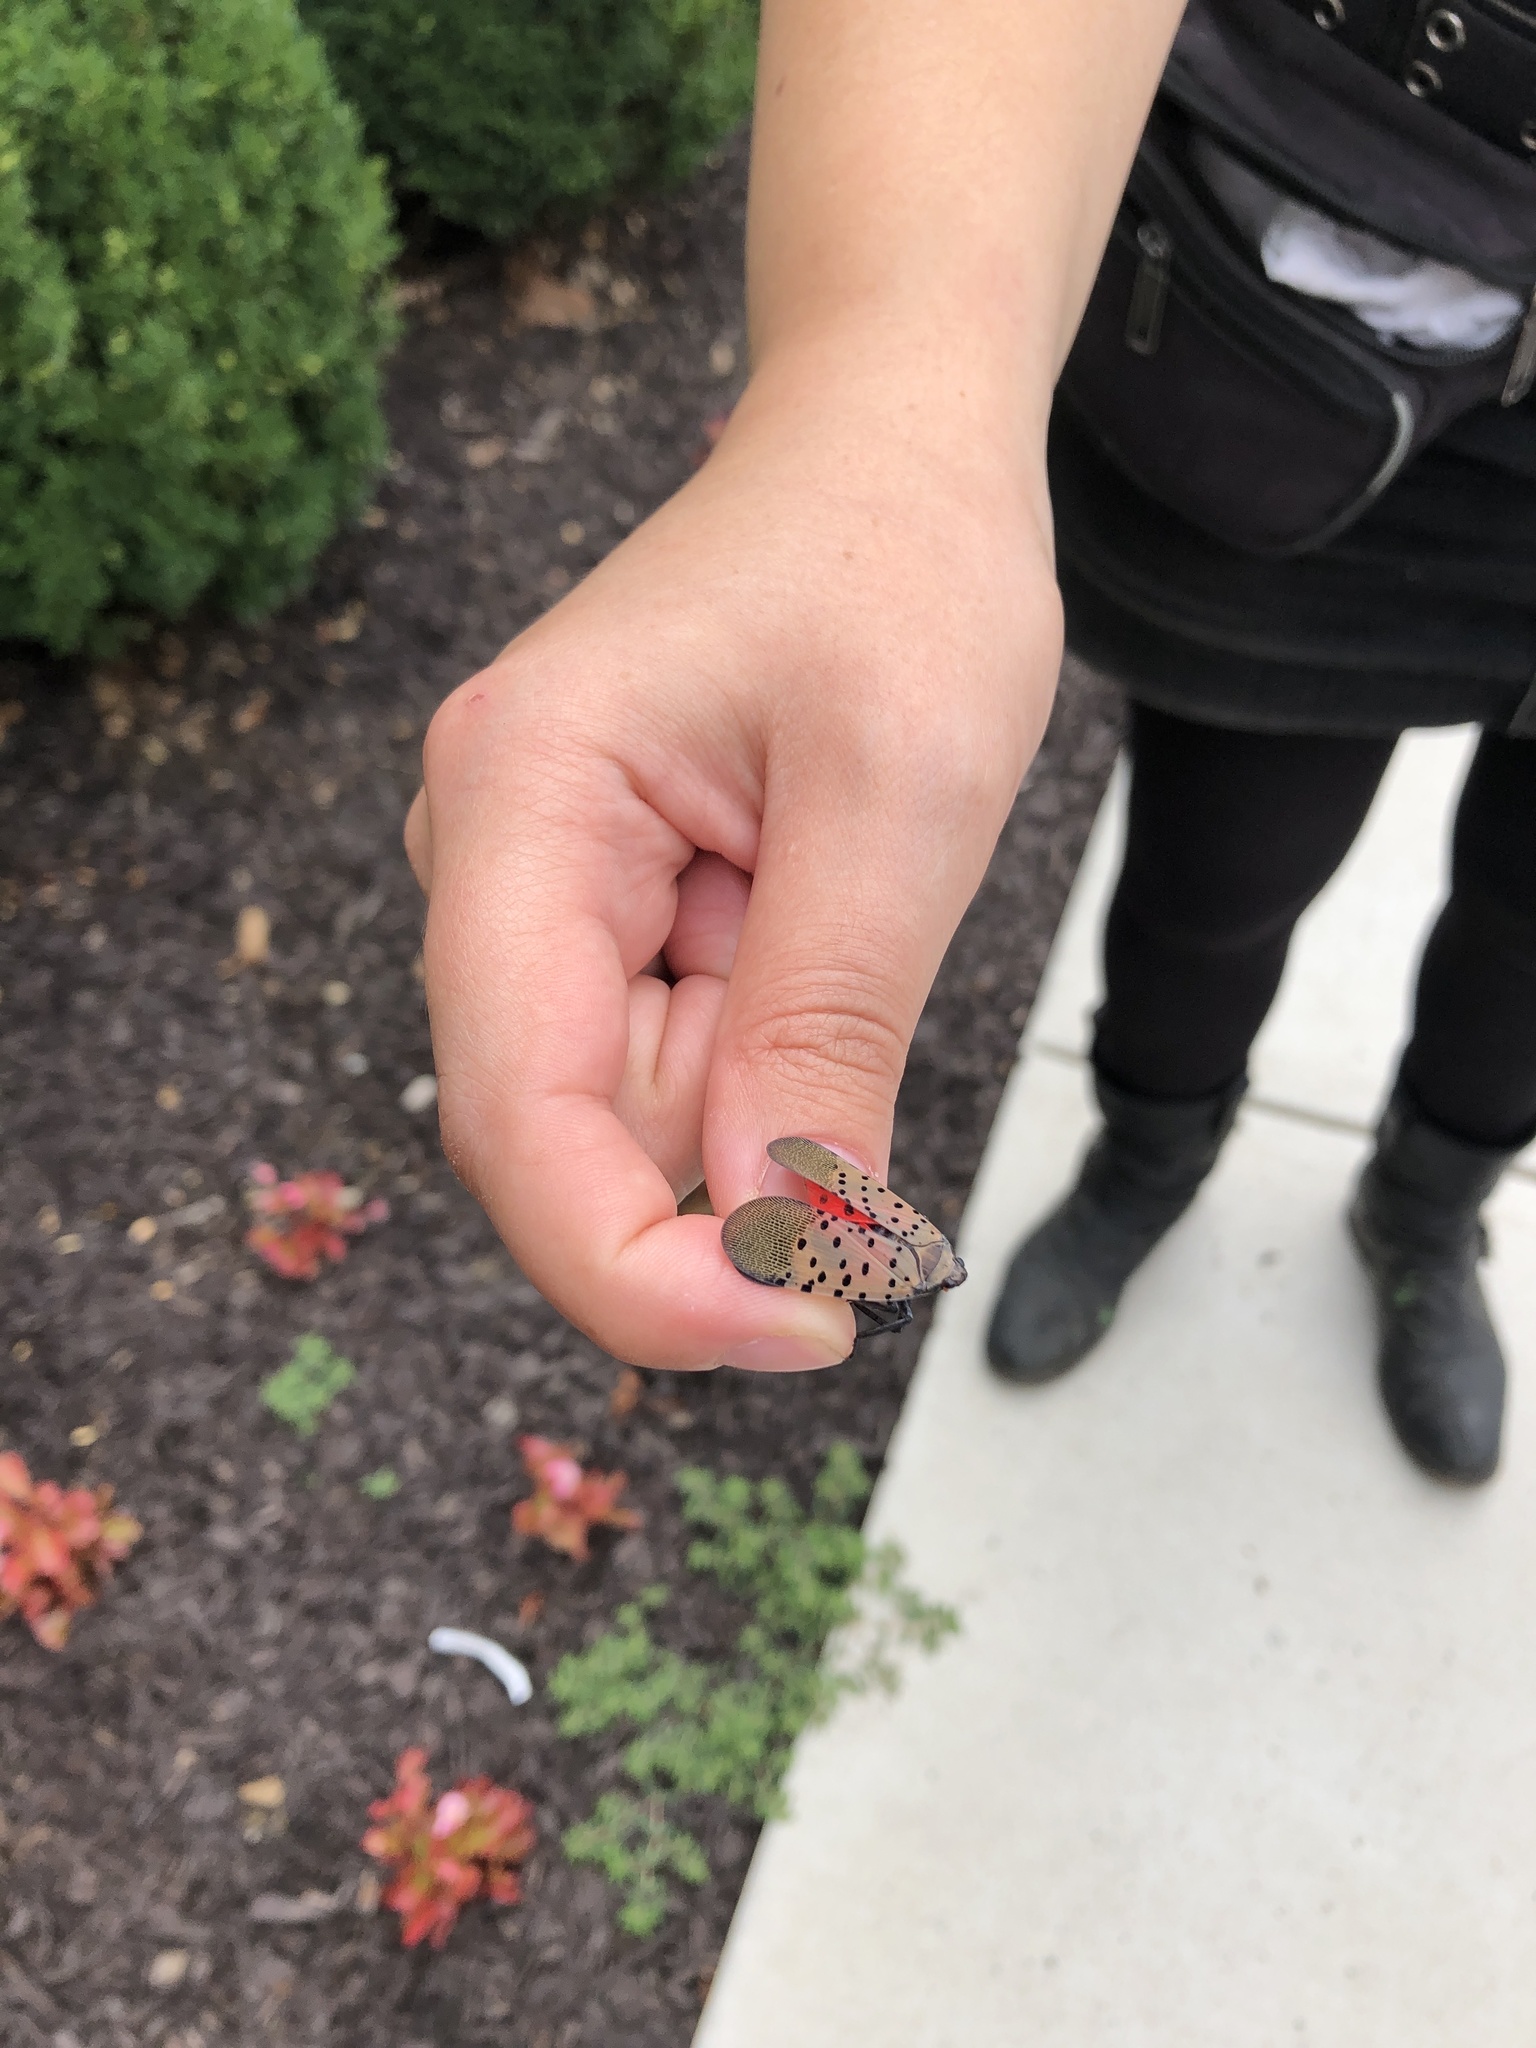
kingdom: Animalia
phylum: Arthropoda
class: Insecta
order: Hemiptera
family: Fulgoridae
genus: Lycorma
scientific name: Lycorma delicatula
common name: Spotted lanternfly
